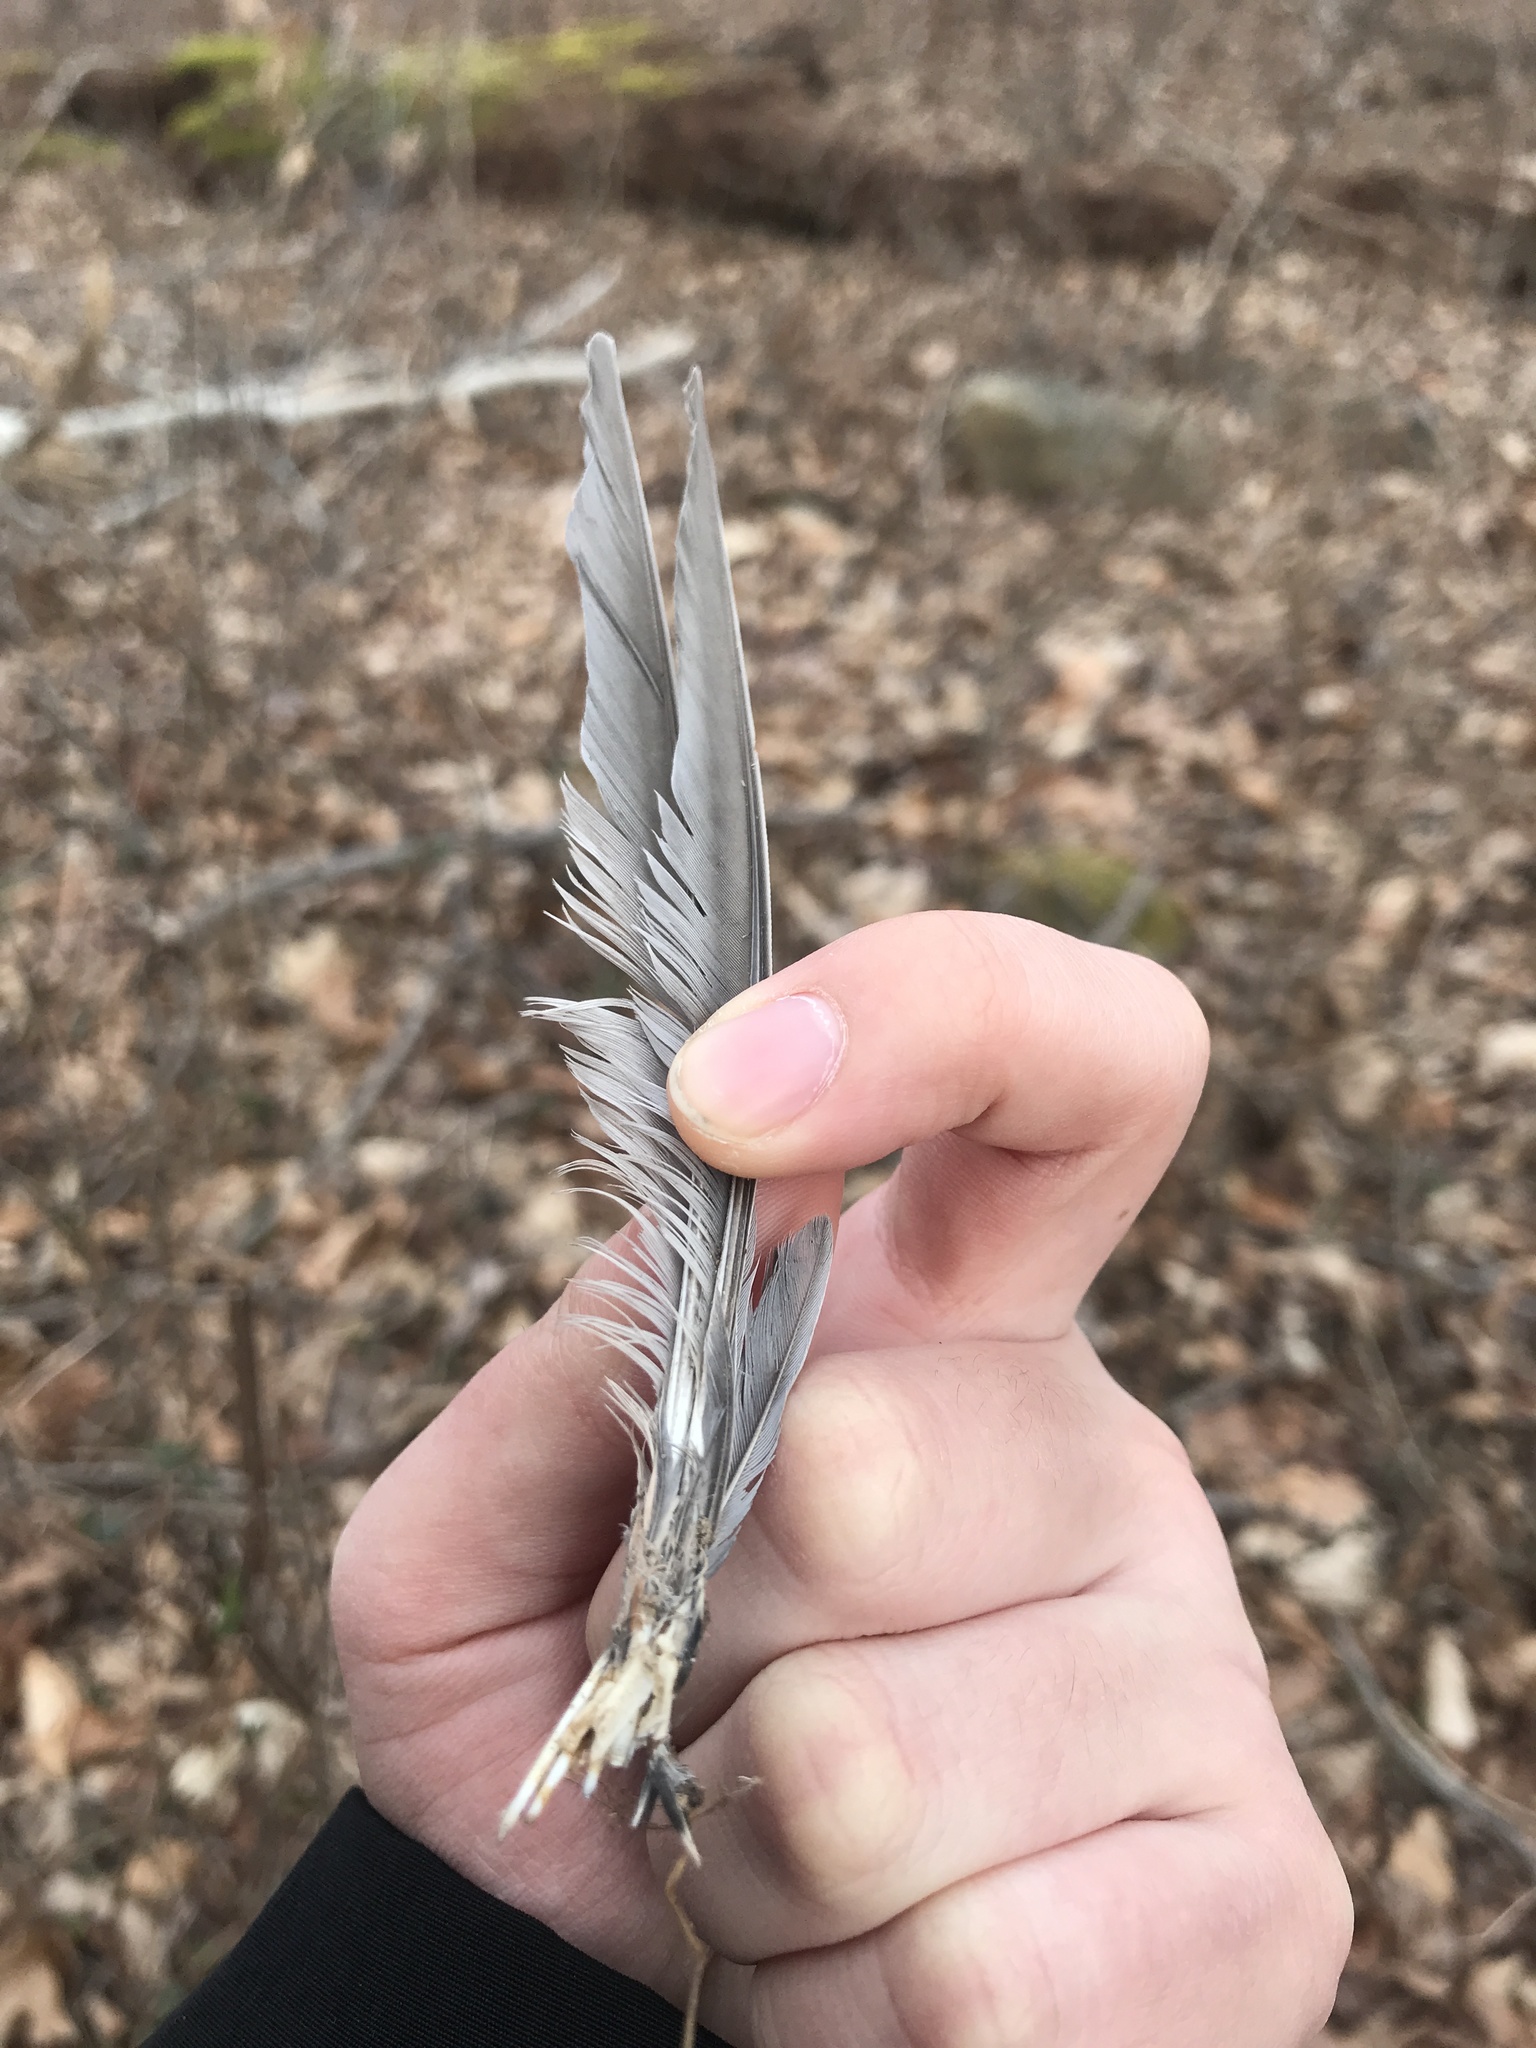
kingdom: Animalia
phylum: Chordata
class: Aves
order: Passeriformes
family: Turdidae
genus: Turdus
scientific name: Turdus migratorius
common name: American robin
